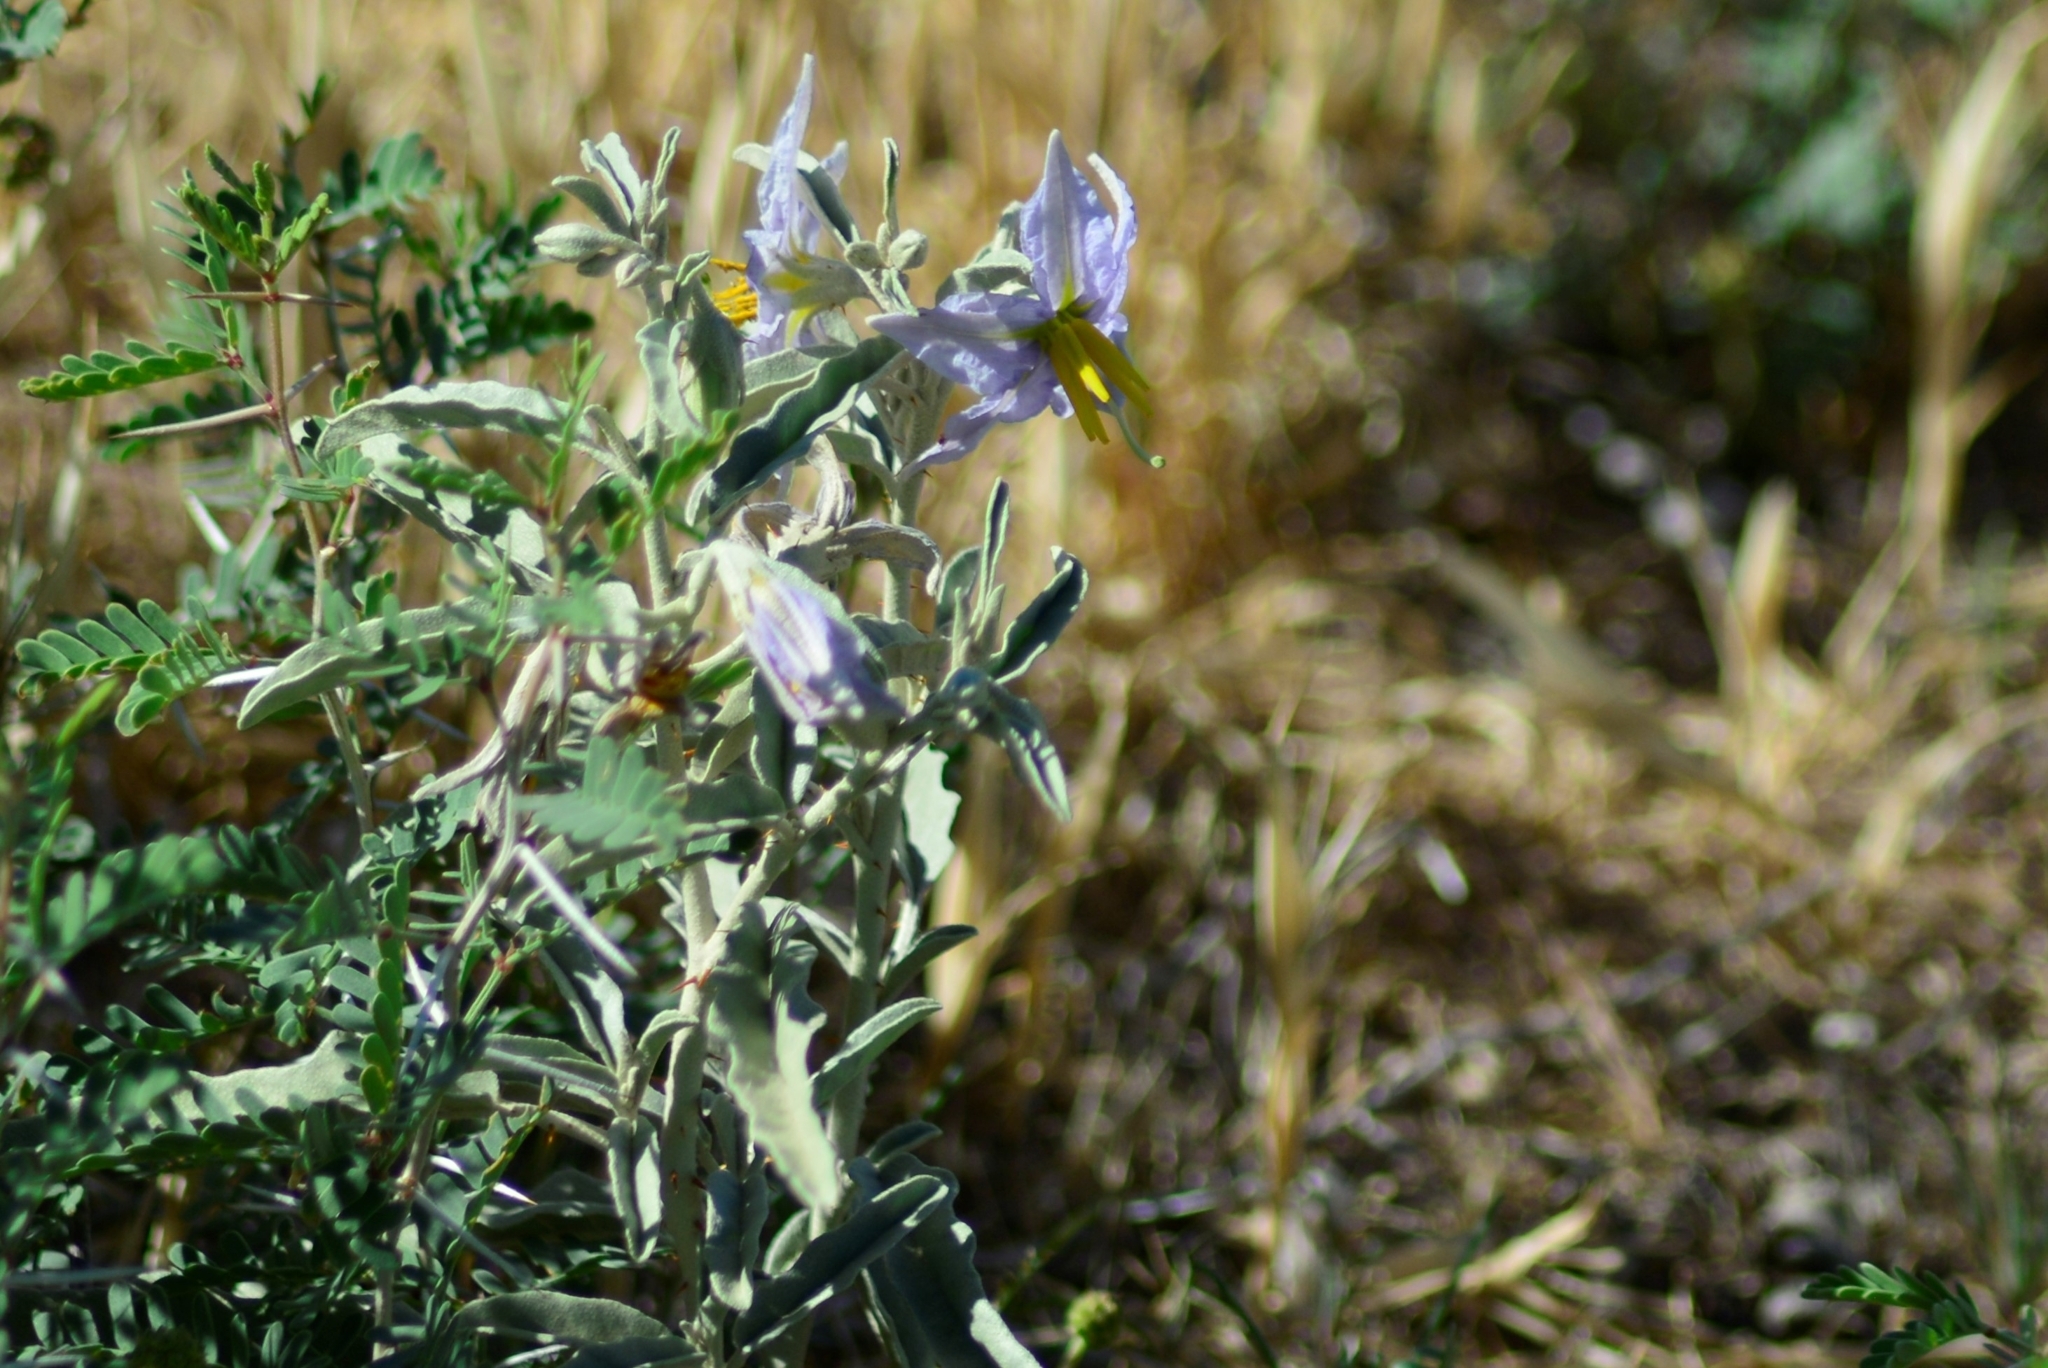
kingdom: Plantae
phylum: Tracheophyta
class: Magnoliopsida
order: Solanales
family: Solanaceae
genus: Solanum
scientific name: Solanum elaeagnifolium
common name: Silverleaf nightshade
